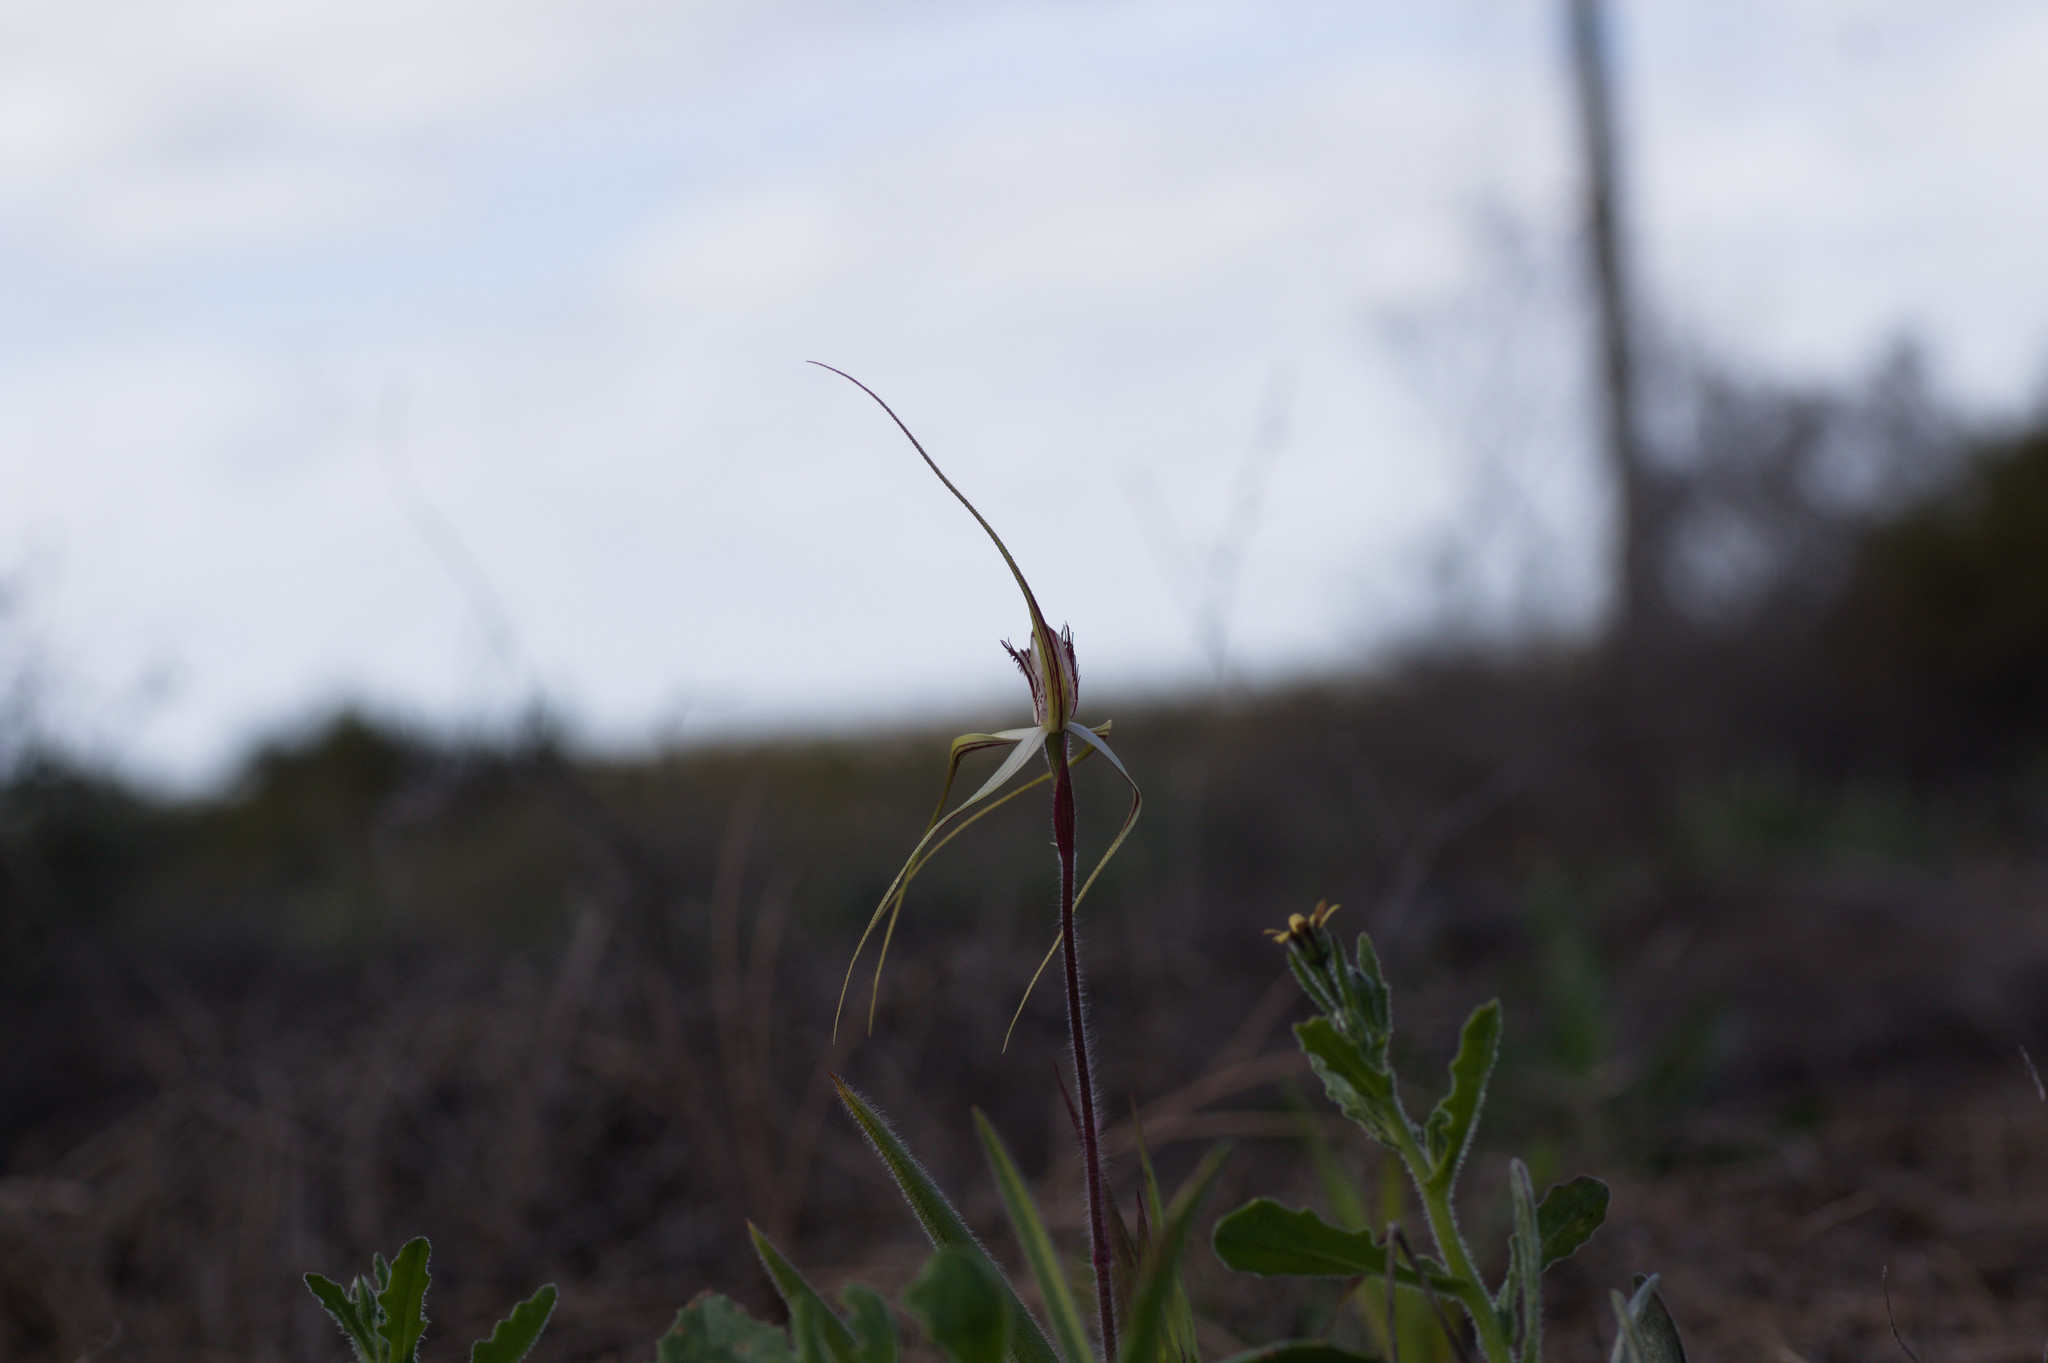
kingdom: Plantae
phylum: Tracheophyta
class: Liliopsida
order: Asparagales
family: Orchidaceae
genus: Caladenia
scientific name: Caladenia longicauda
